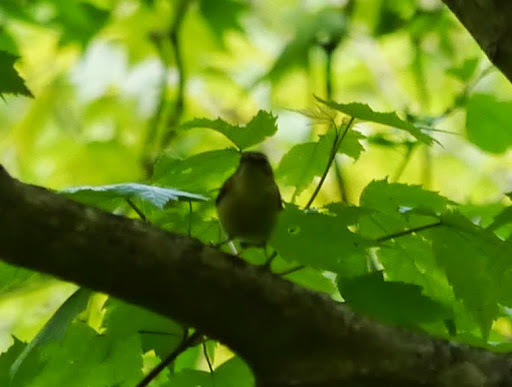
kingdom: Animalia
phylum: Chordata
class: Aves
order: Passeriformes
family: Parulidae
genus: Setophaga
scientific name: Setophaga caerulescens
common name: Black-throated blue warbler
